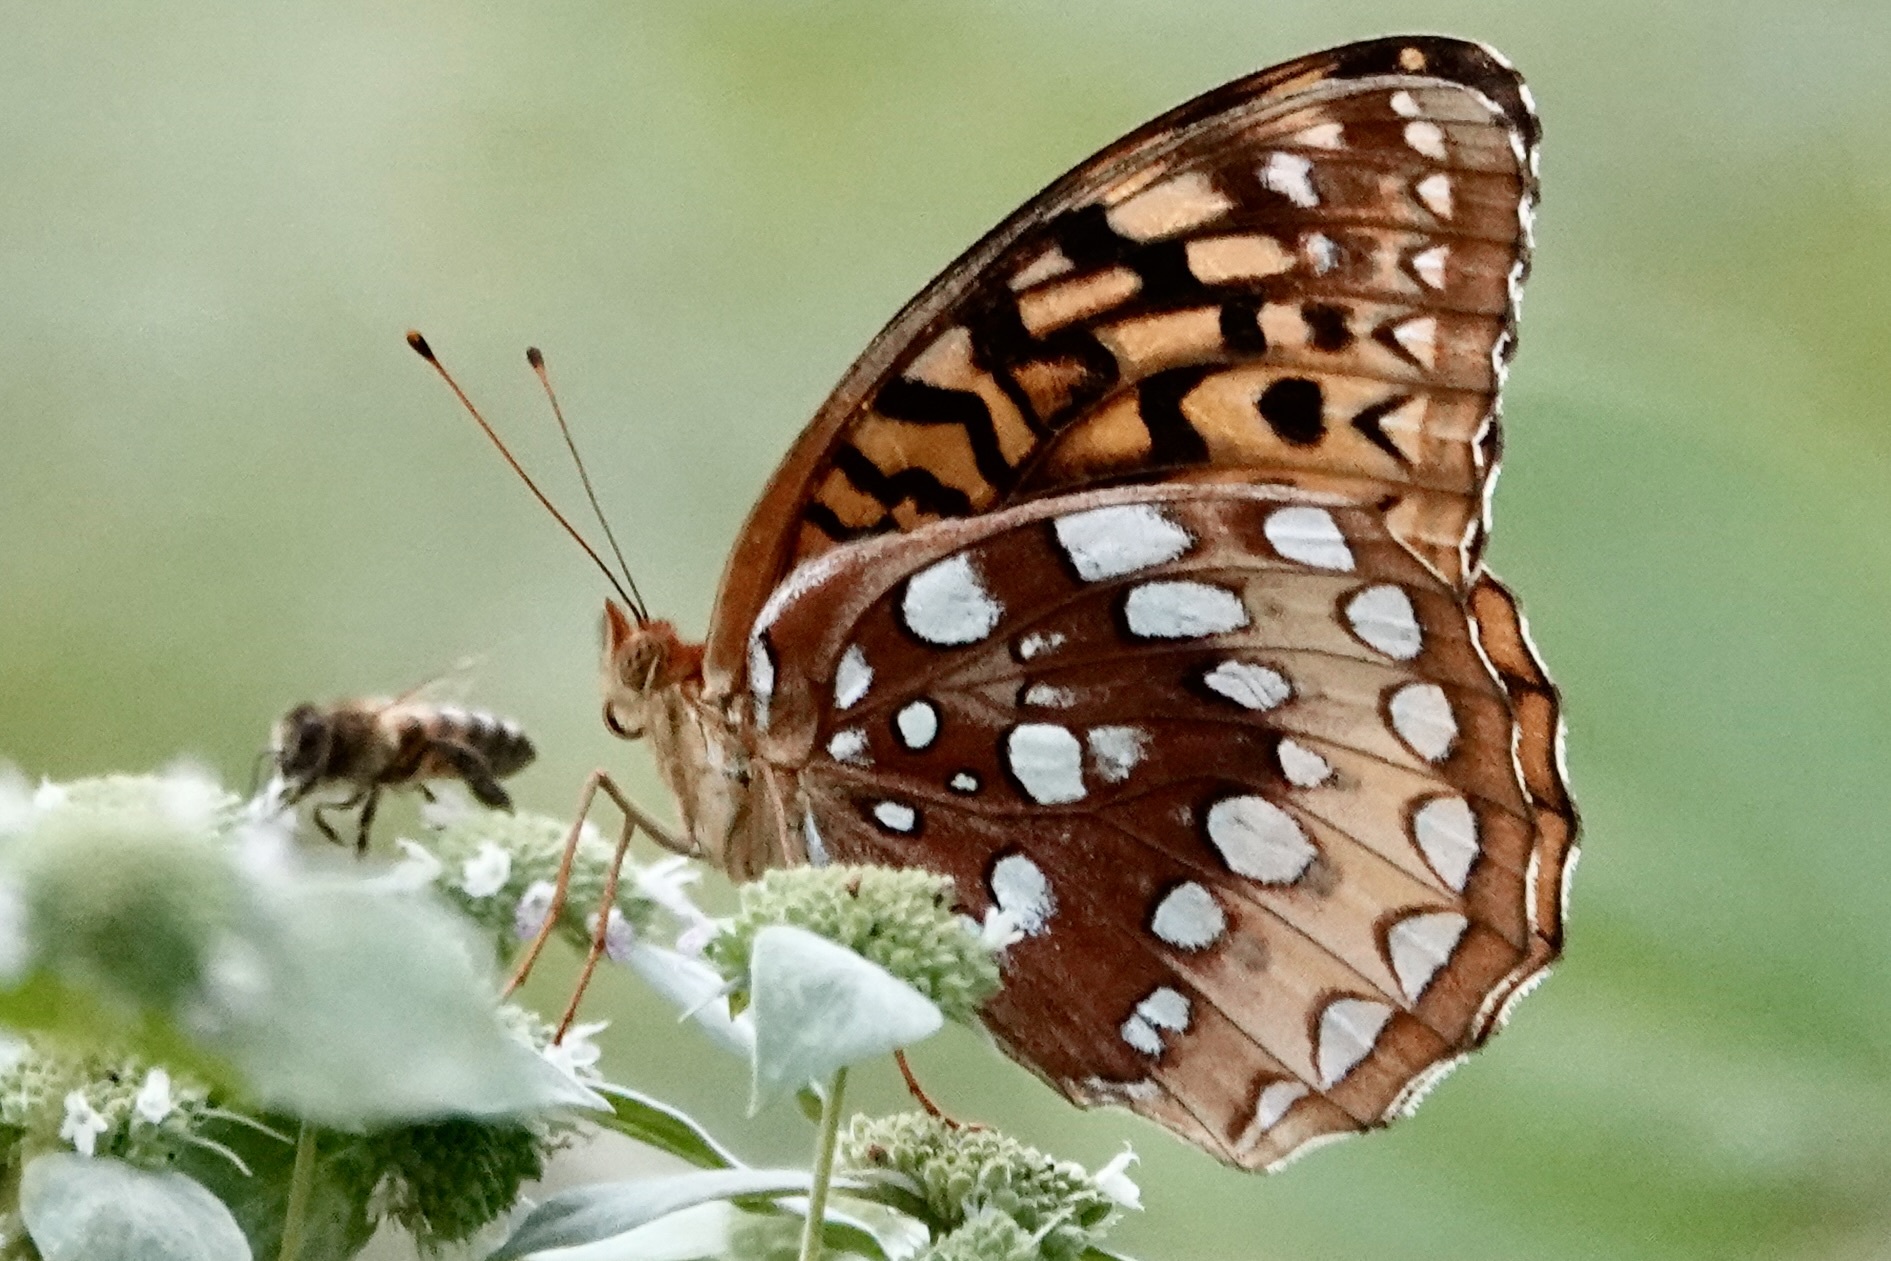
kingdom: Animalia
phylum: Arthropoda
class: Insecta
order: Lepidoptera
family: Nymphalidae
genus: Speyeria
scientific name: Speyeria cybele
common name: Great spangled fritillary
